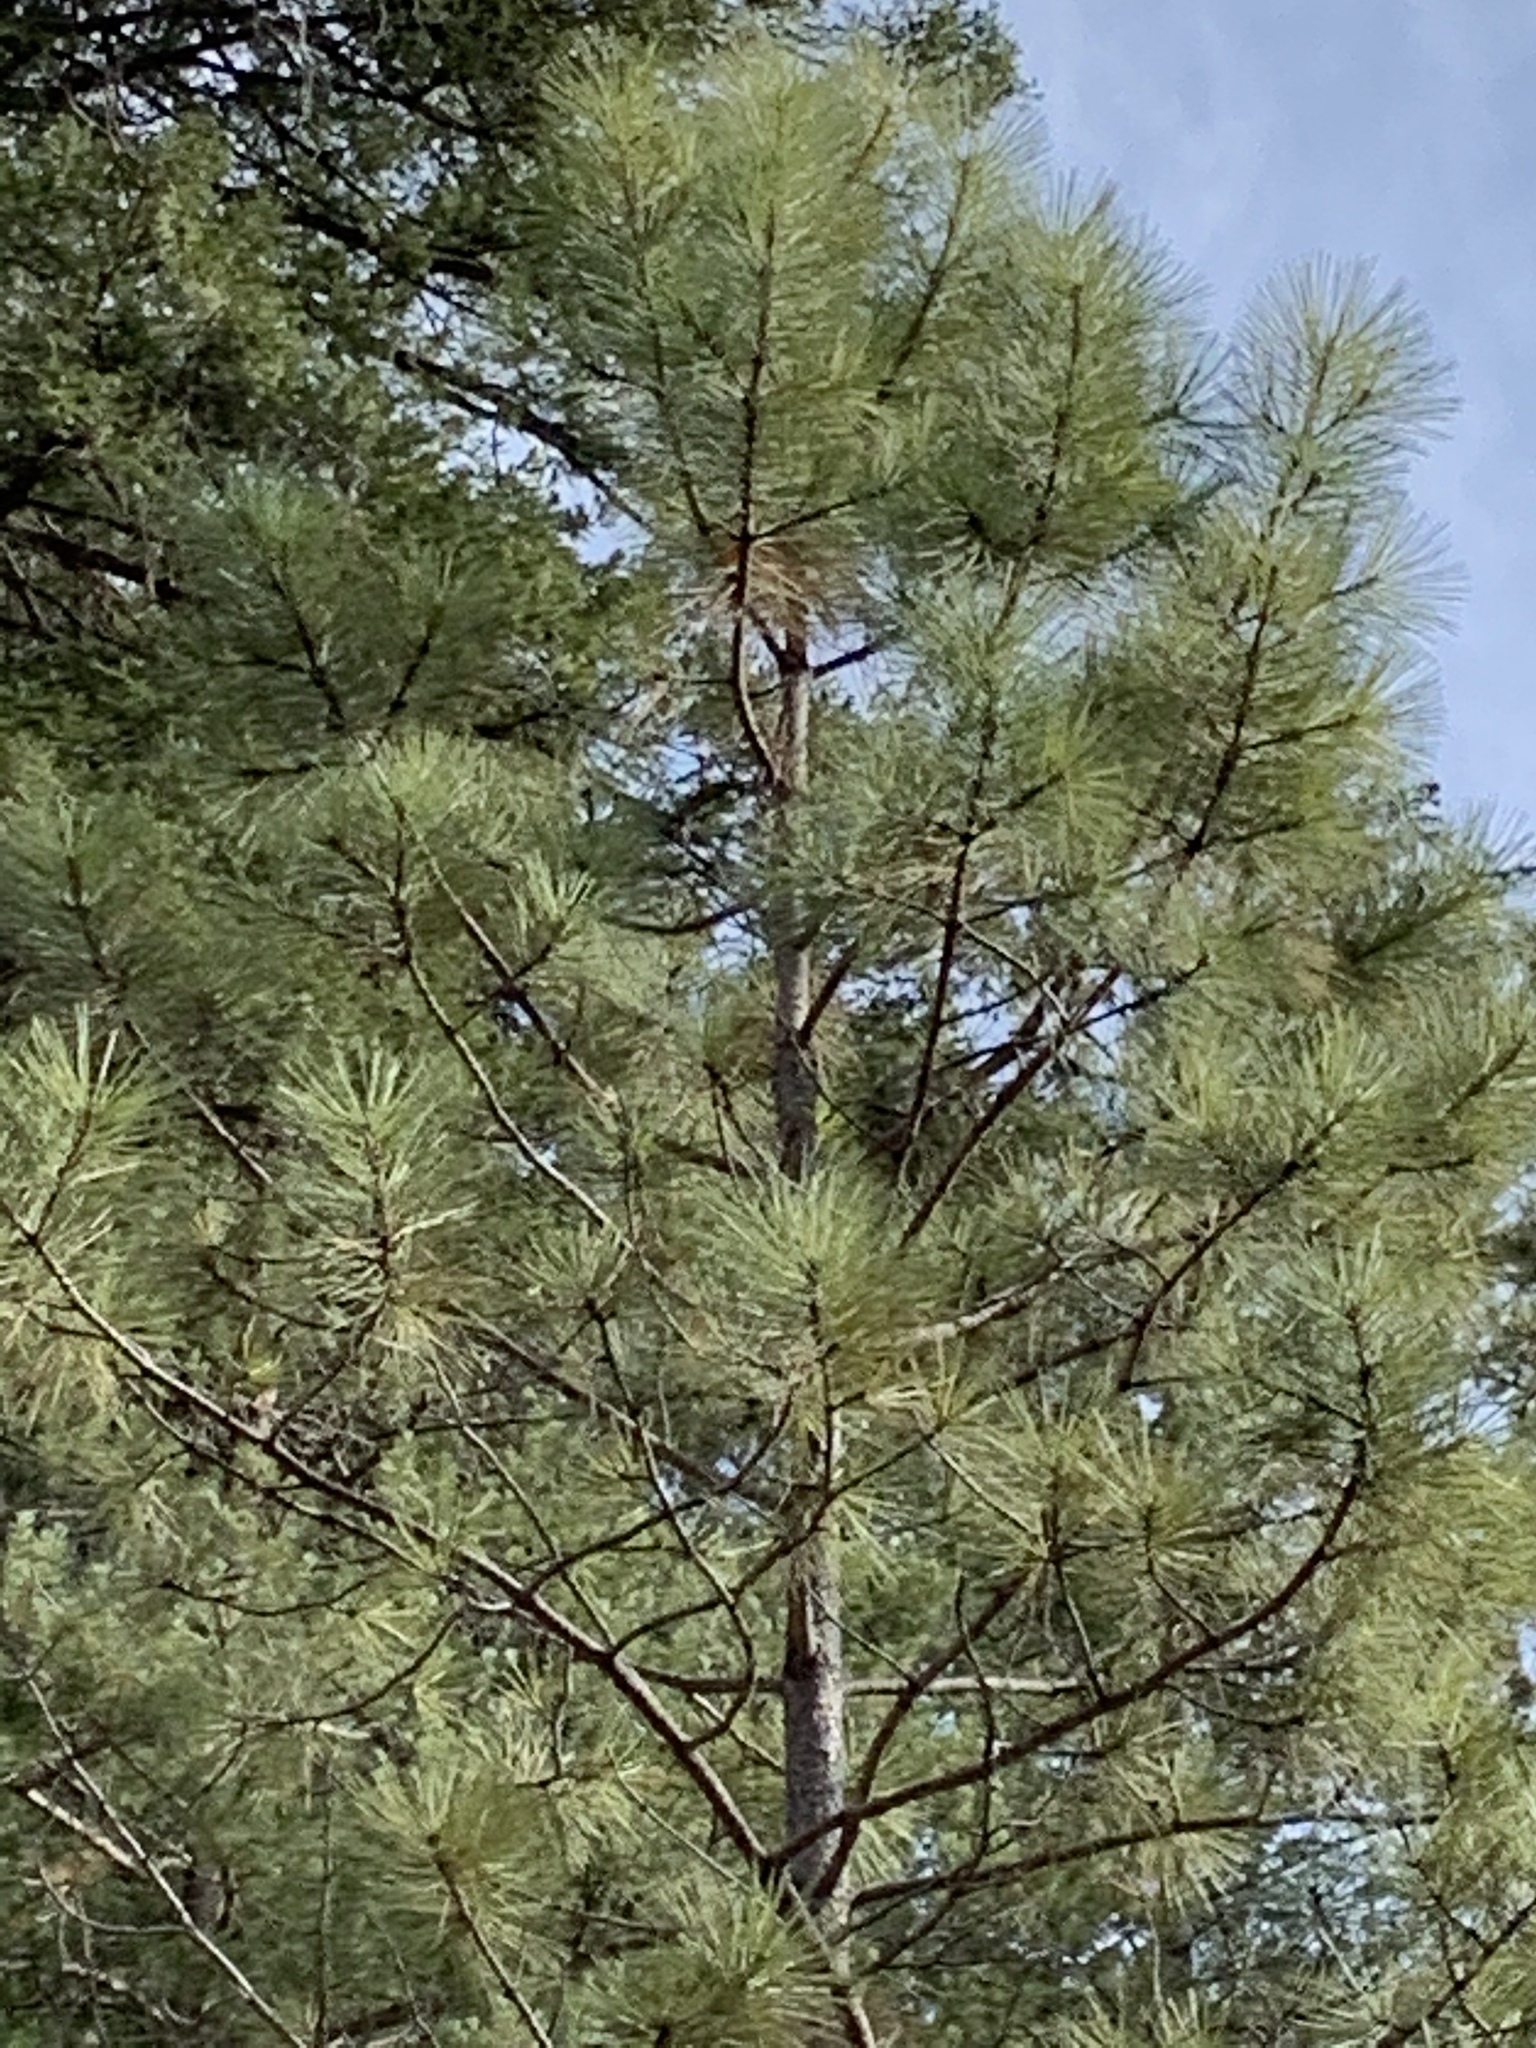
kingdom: Plantae
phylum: Tracheophyta
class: Pinopsida
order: Pinales
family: Pinaceae
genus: Pinus
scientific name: Pinus ponderosa
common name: Western yellow-pine
